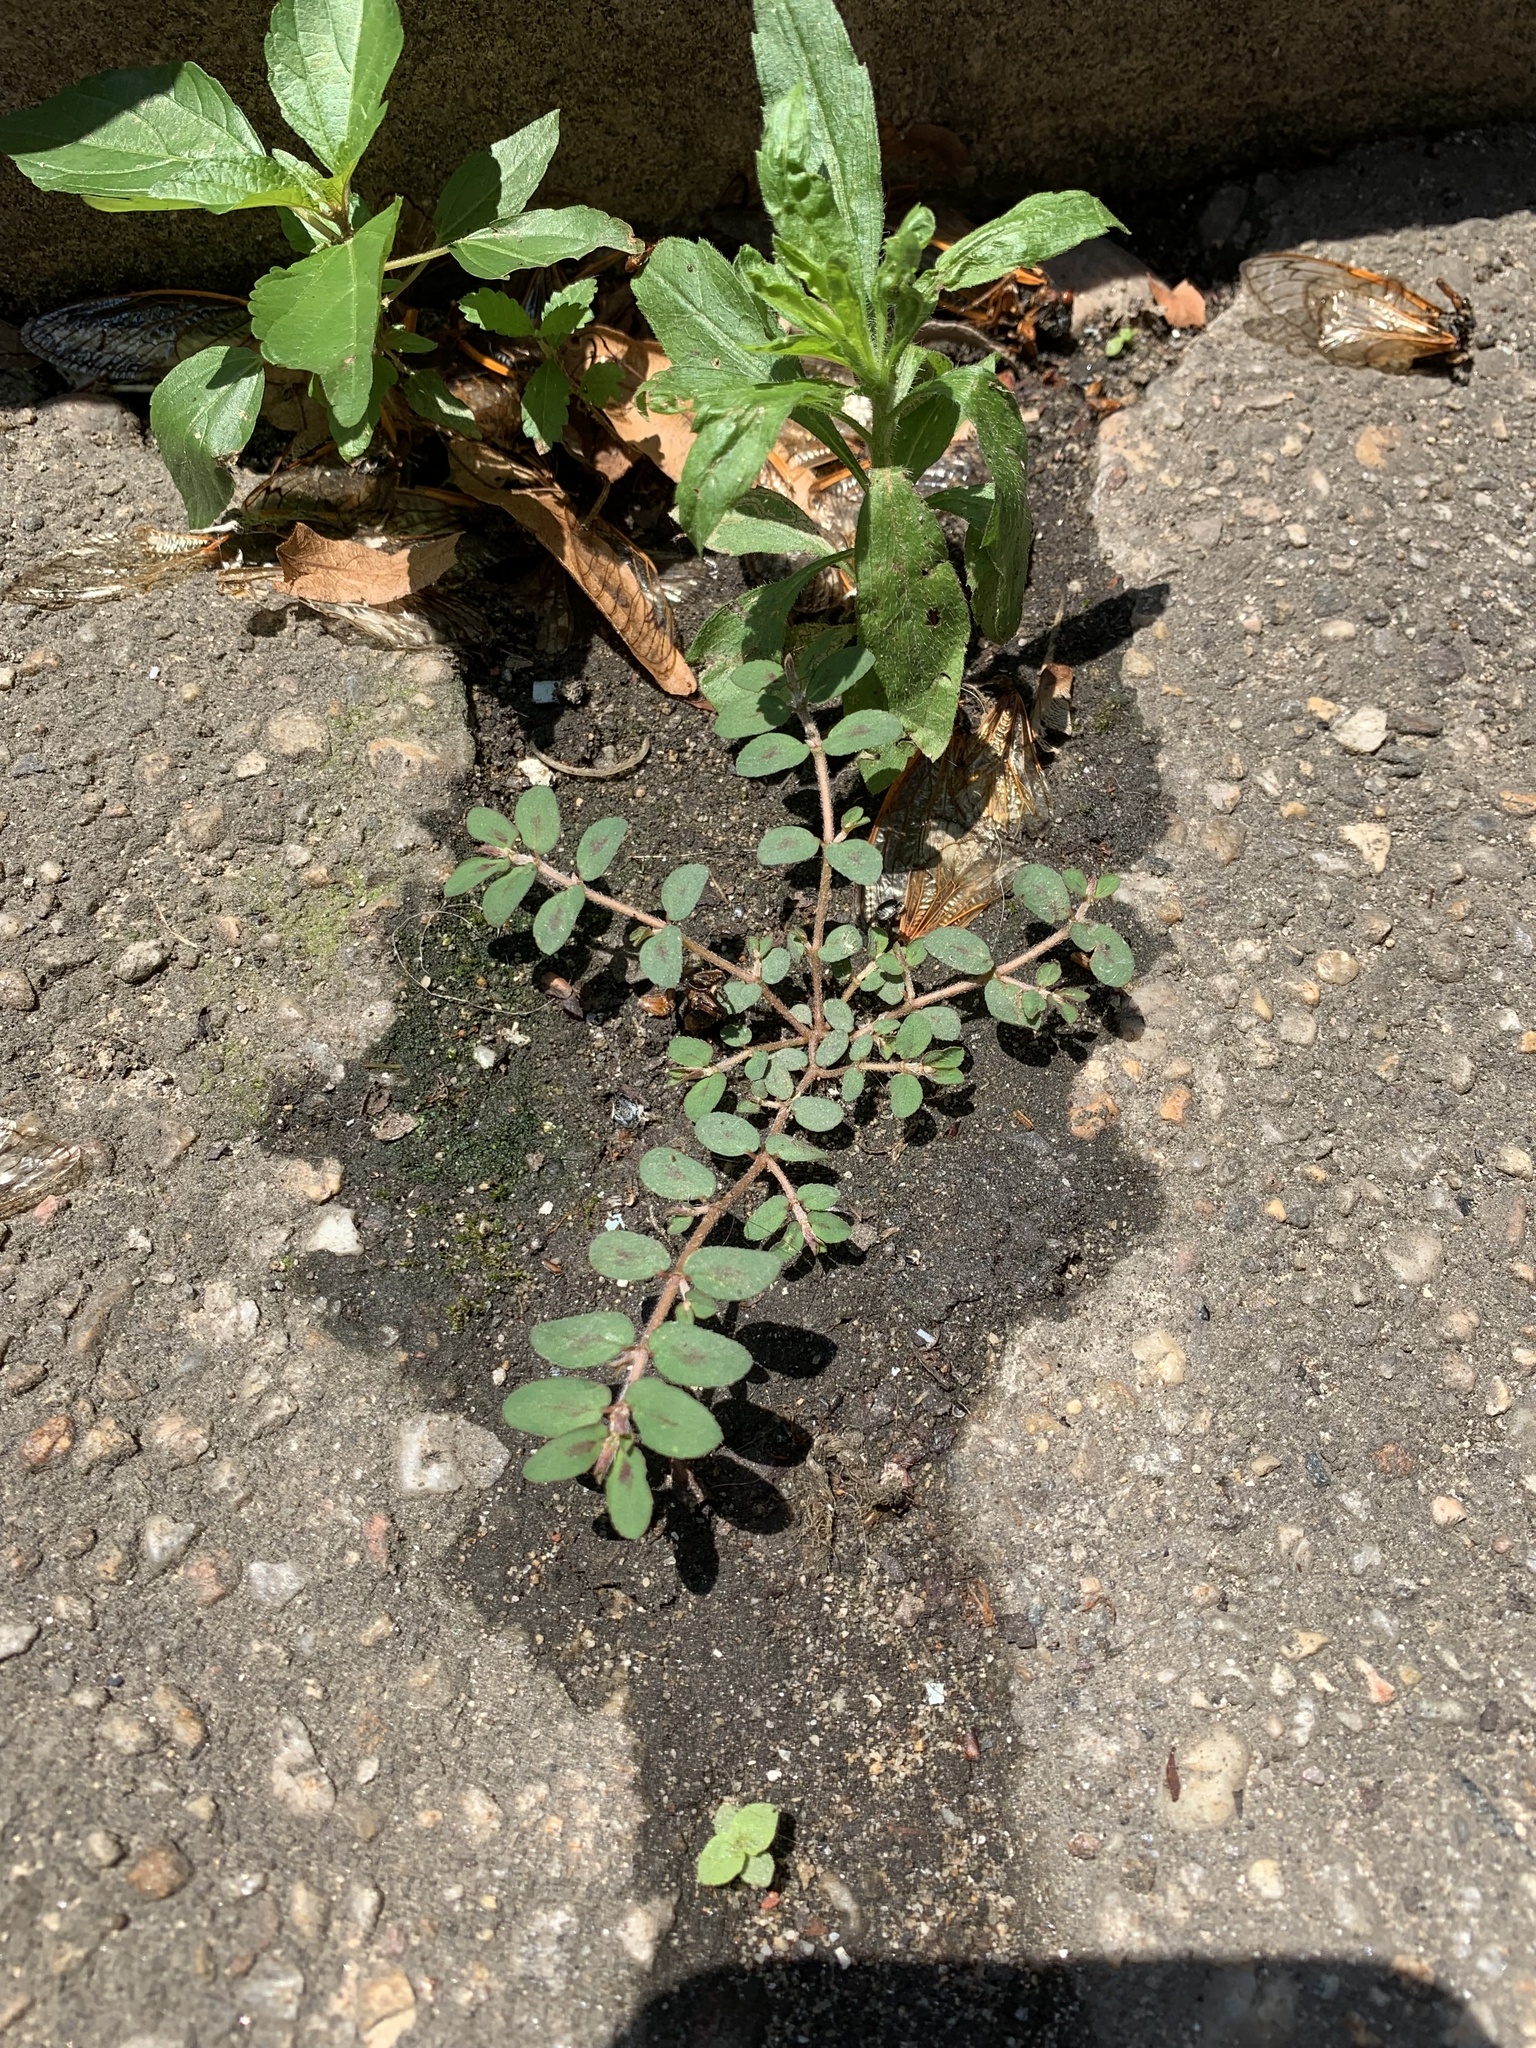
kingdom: Plantae
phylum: Tracheophyta
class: Magnoliopsida
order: Malpighiales
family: Euphorbiaceae
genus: Euphorbia
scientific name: Euphorbia maculata
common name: Spotted spurge
